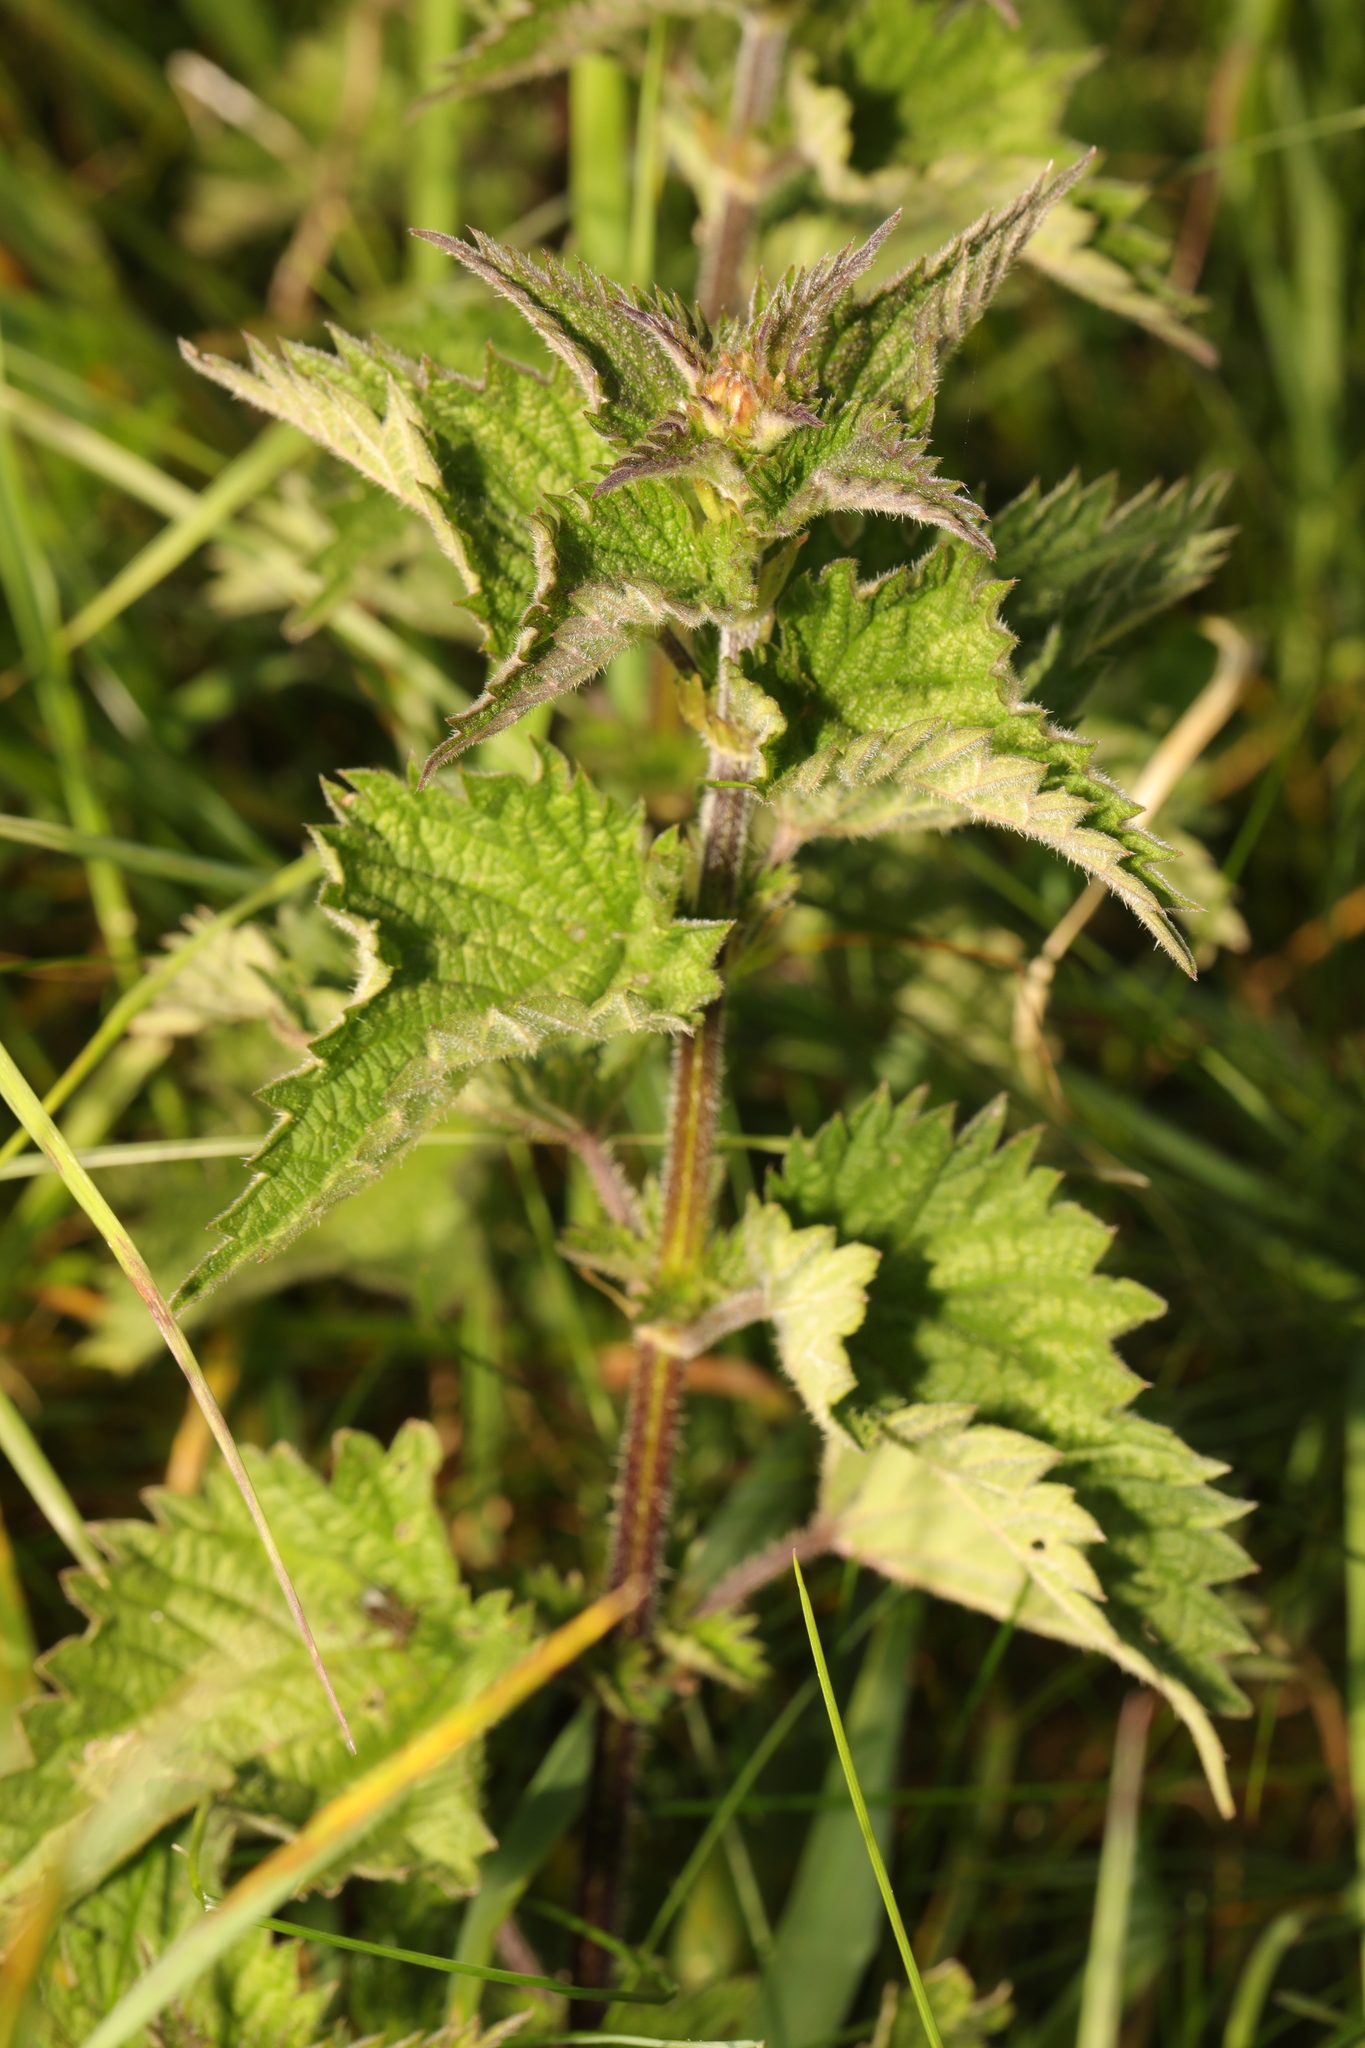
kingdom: Plantae
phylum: Tracheophyta
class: Magnoliopsida
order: Rosales
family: Urticaceae
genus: Urtica
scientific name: Urtica dioica
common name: Common nettle
